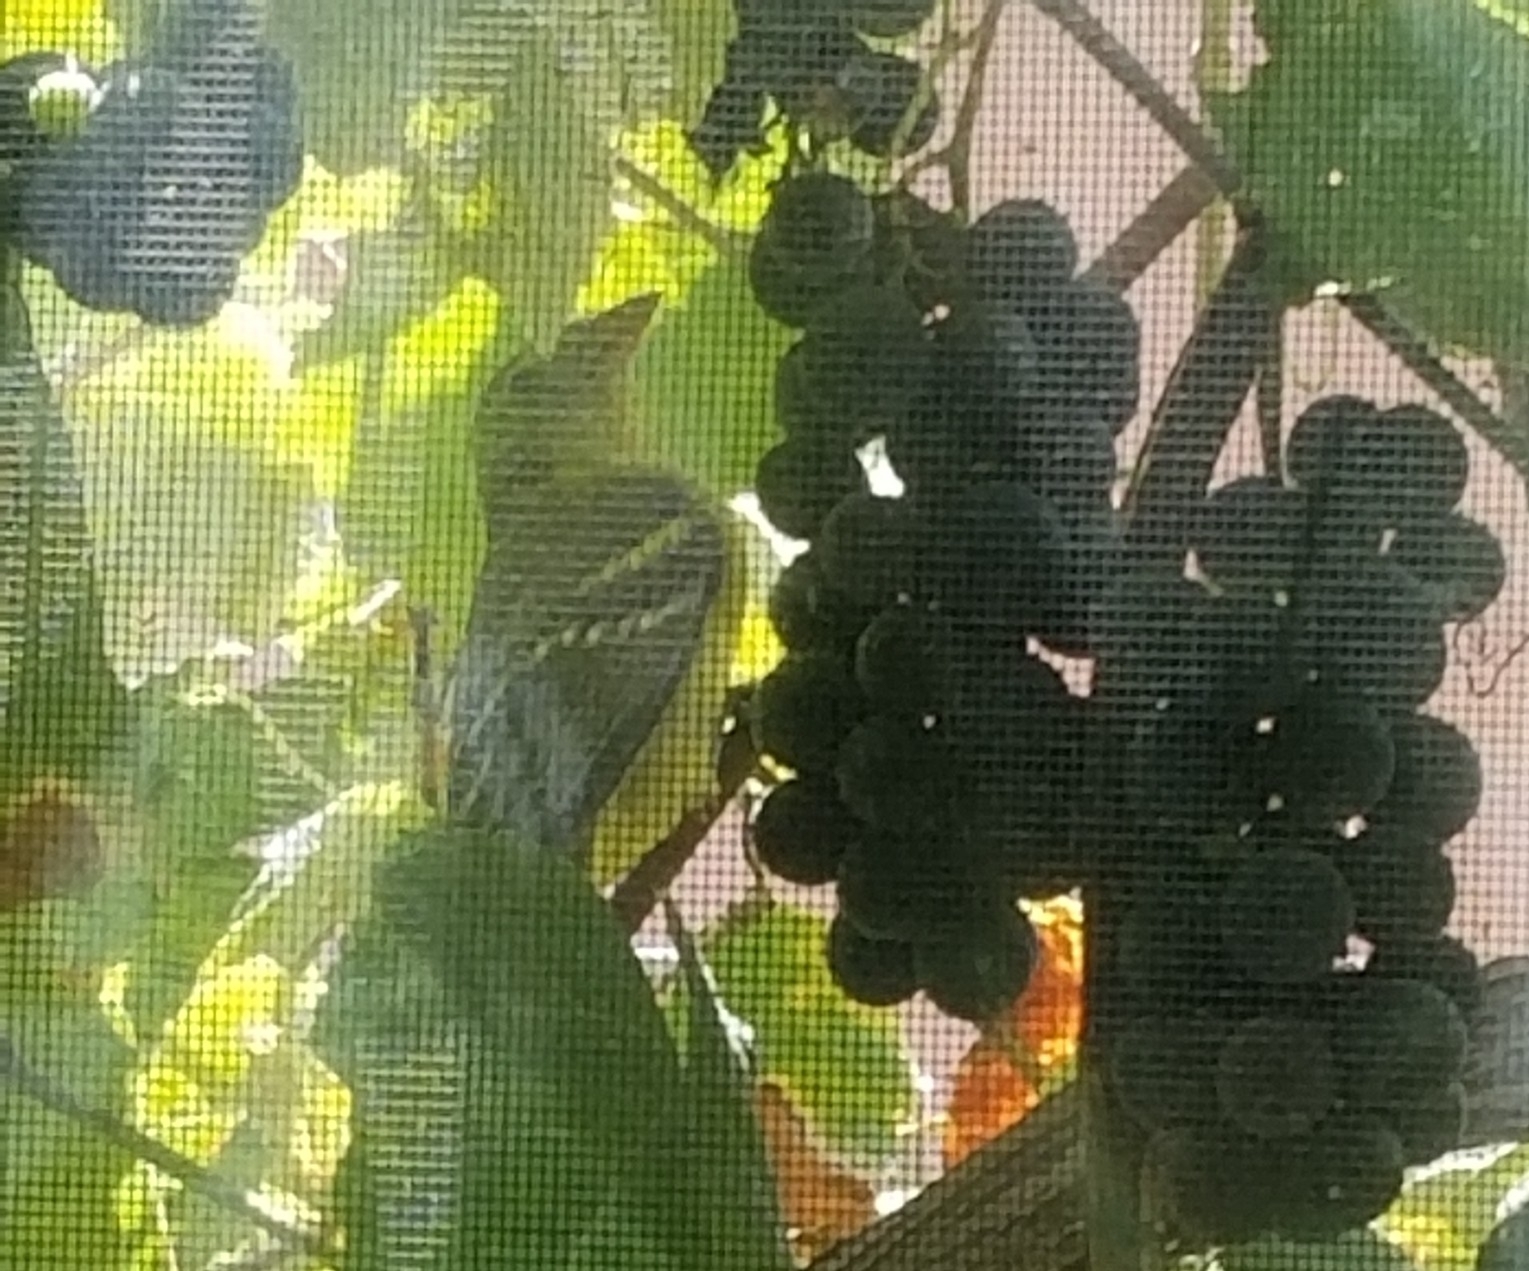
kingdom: Animalia
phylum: Chordata
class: Aves
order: Passeriformes
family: Cardinalidae
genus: Piranga
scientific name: Piranga ludoviciana
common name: Western tanager
